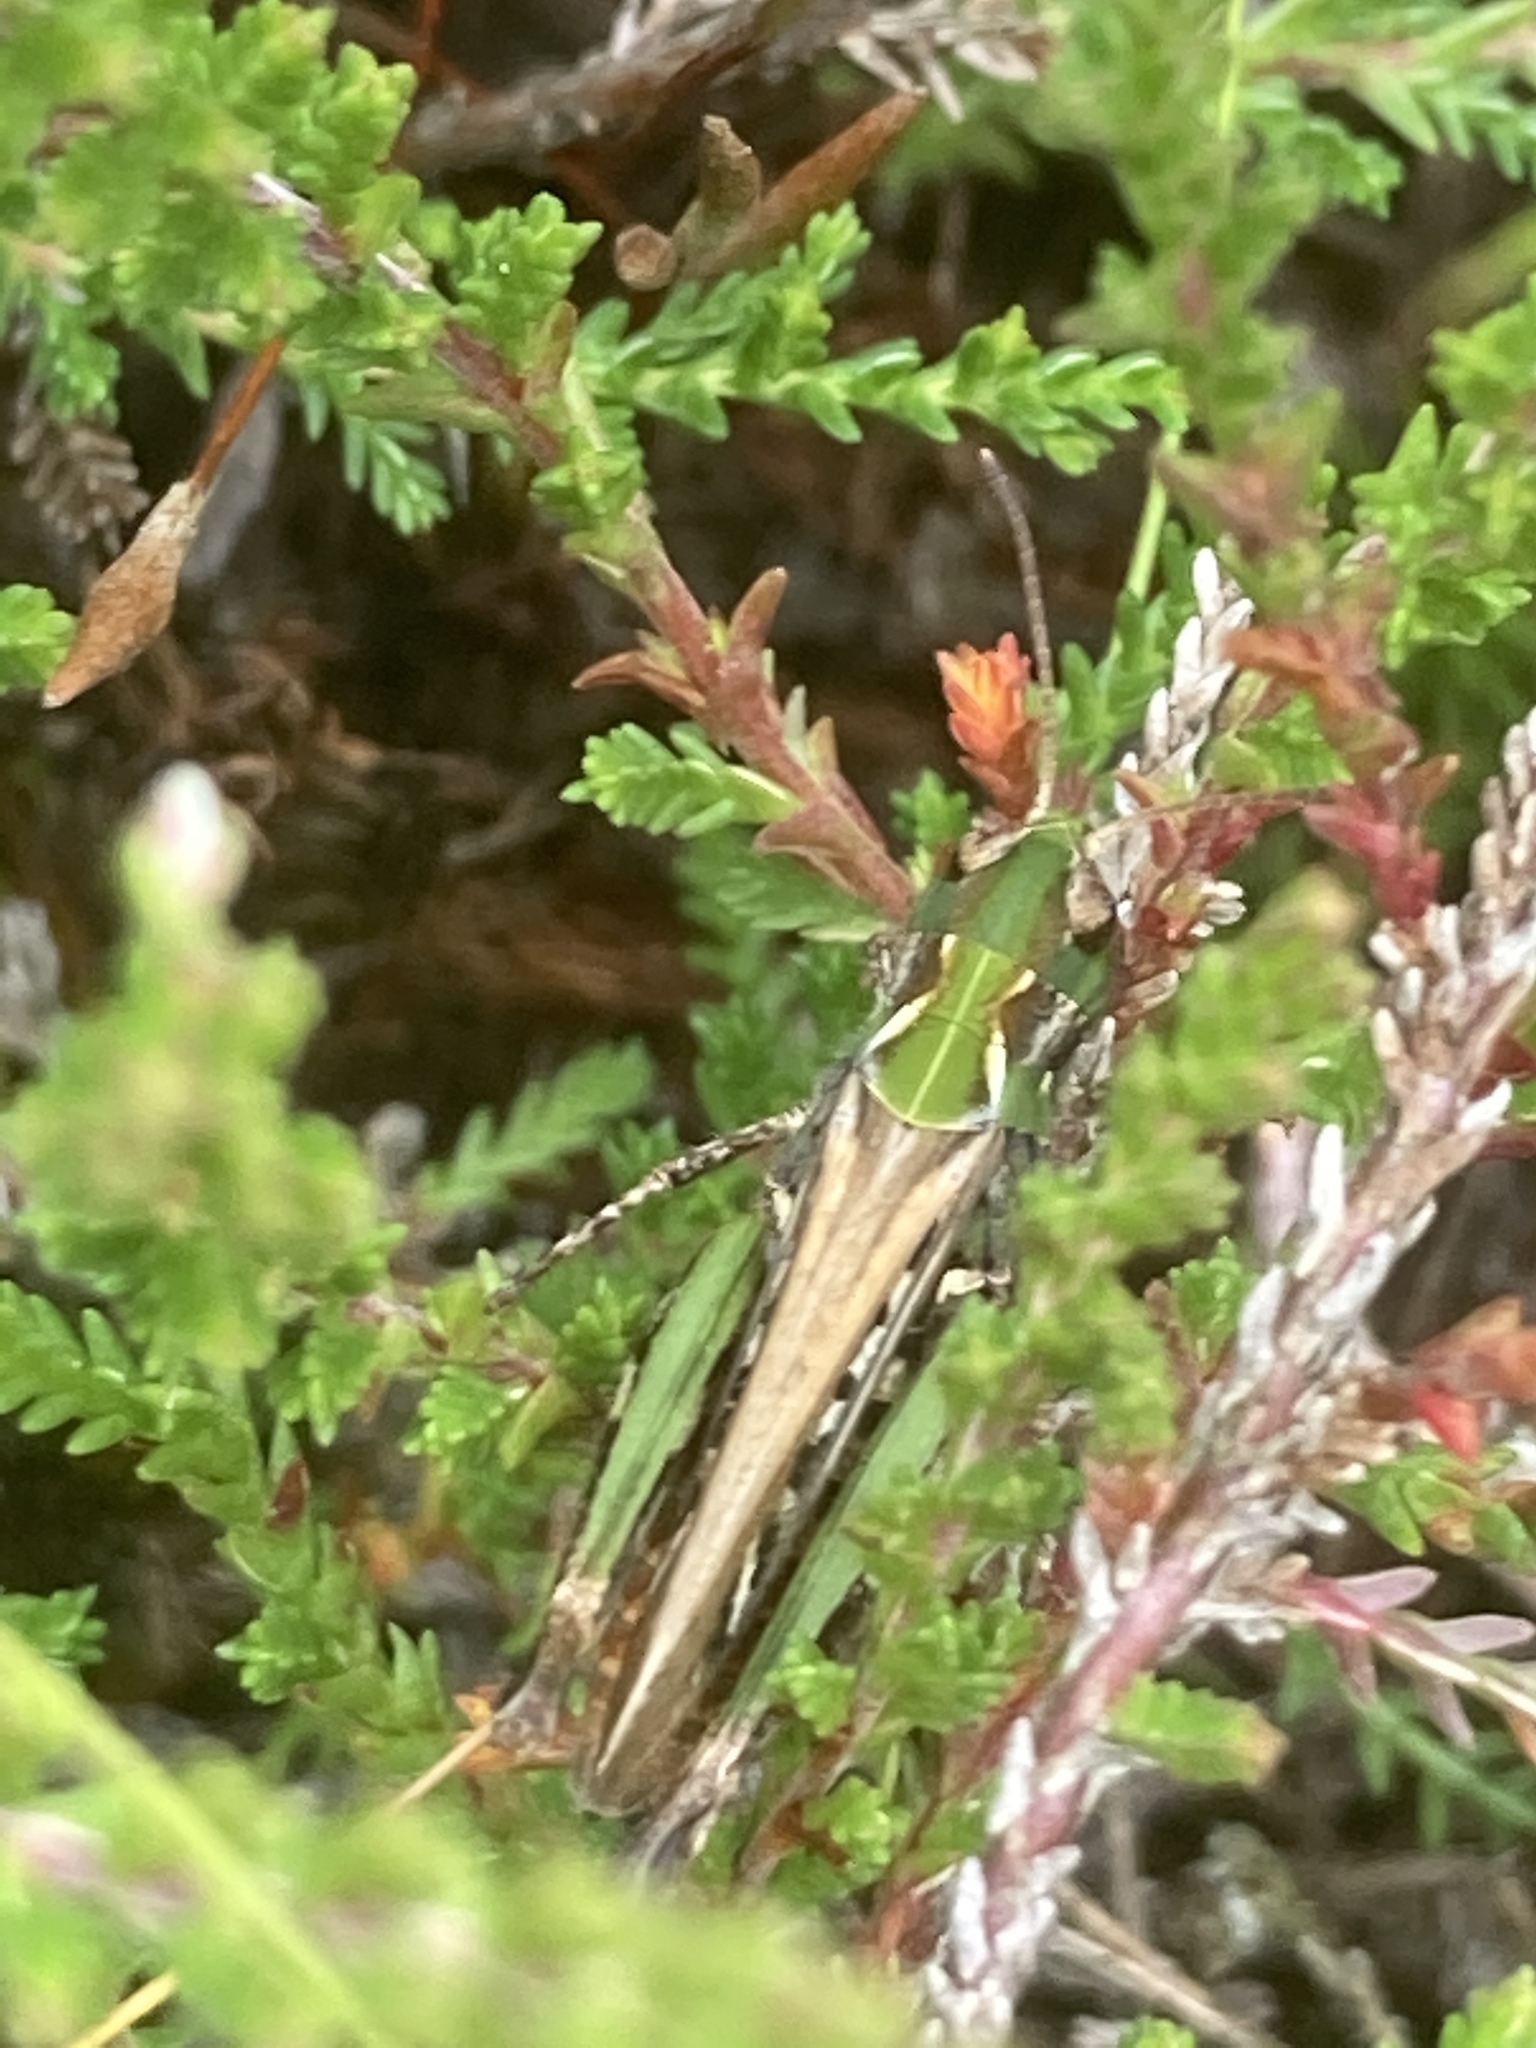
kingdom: Animalia
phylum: Arthropoda
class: Insecta
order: Orthoptera
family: Acrididae
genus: Myrmeleotettix
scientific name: Myrmeleotettix maculatus
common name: Mottled grasshopper
